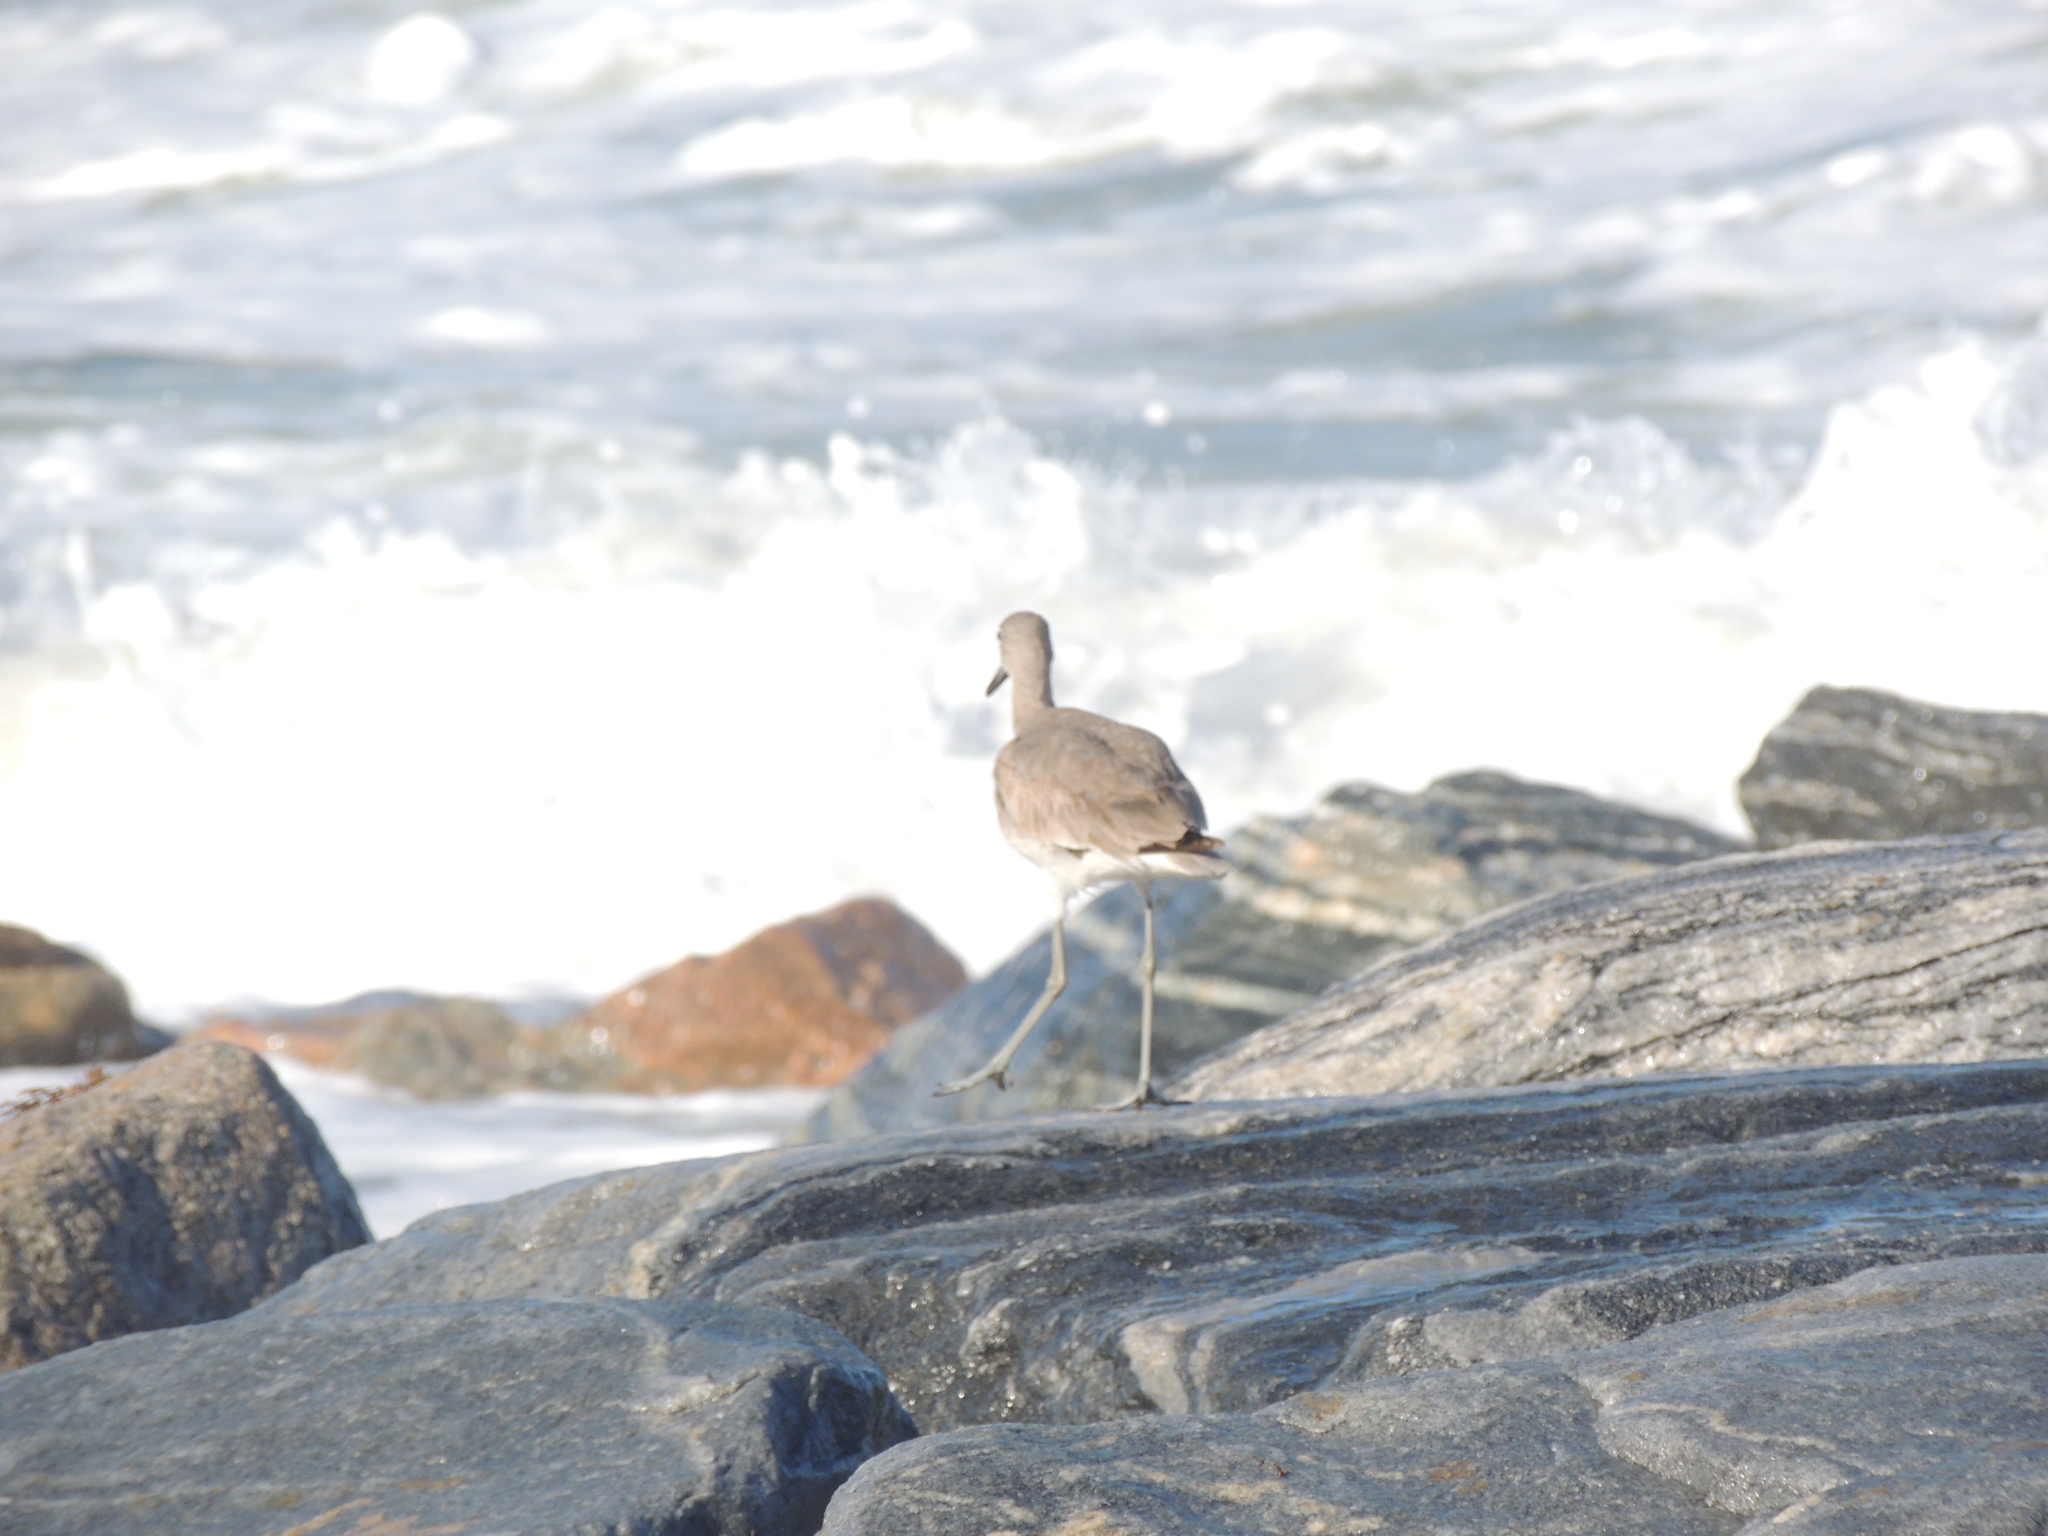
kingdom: Animalia
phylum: Chordata
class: Aves
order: Charadriiformes
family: Scolopacidae
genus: Tringa
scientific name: Tringa semipalmata
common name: Willet
